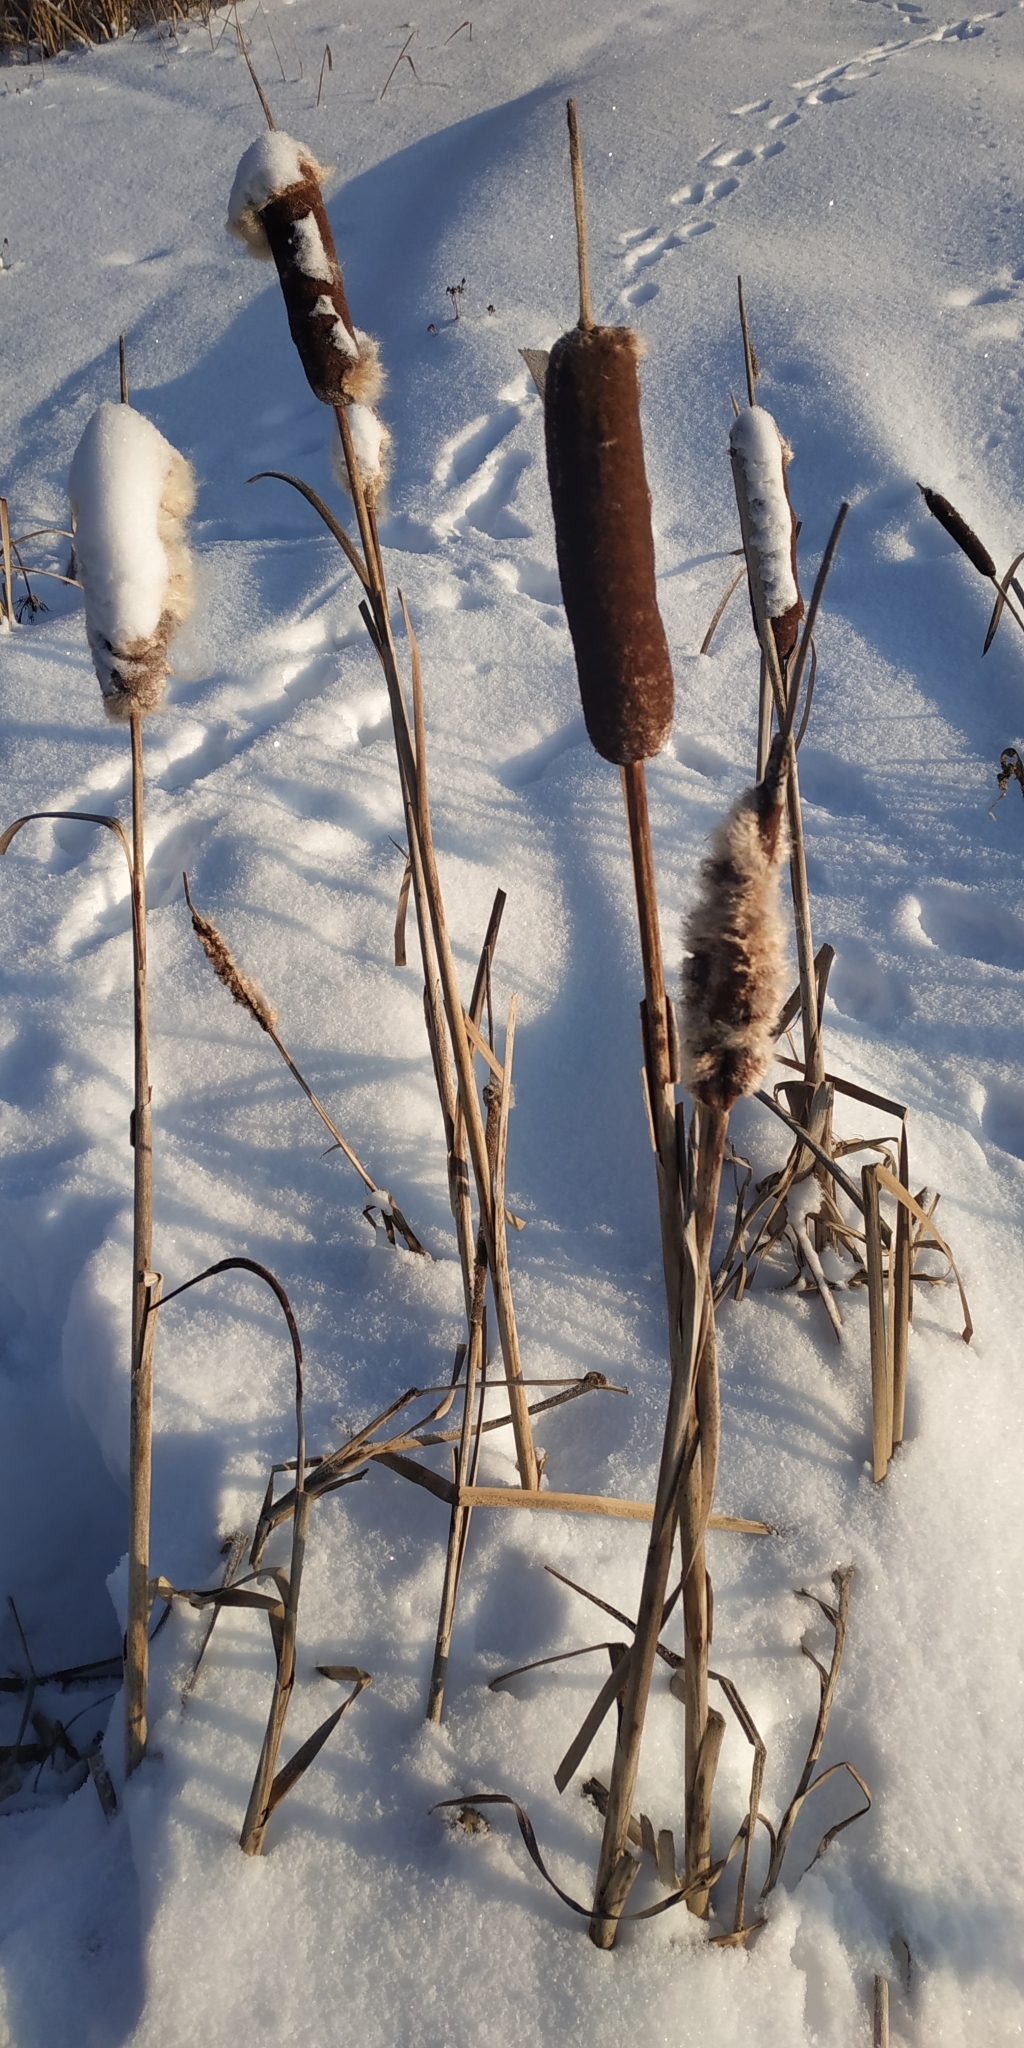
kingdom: Plantae
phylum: Tracheophyta
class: Liliopsida
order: Poales
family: Typhaceae
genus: Typha
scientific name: Typha latifolia
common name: Broadleaf cattail
